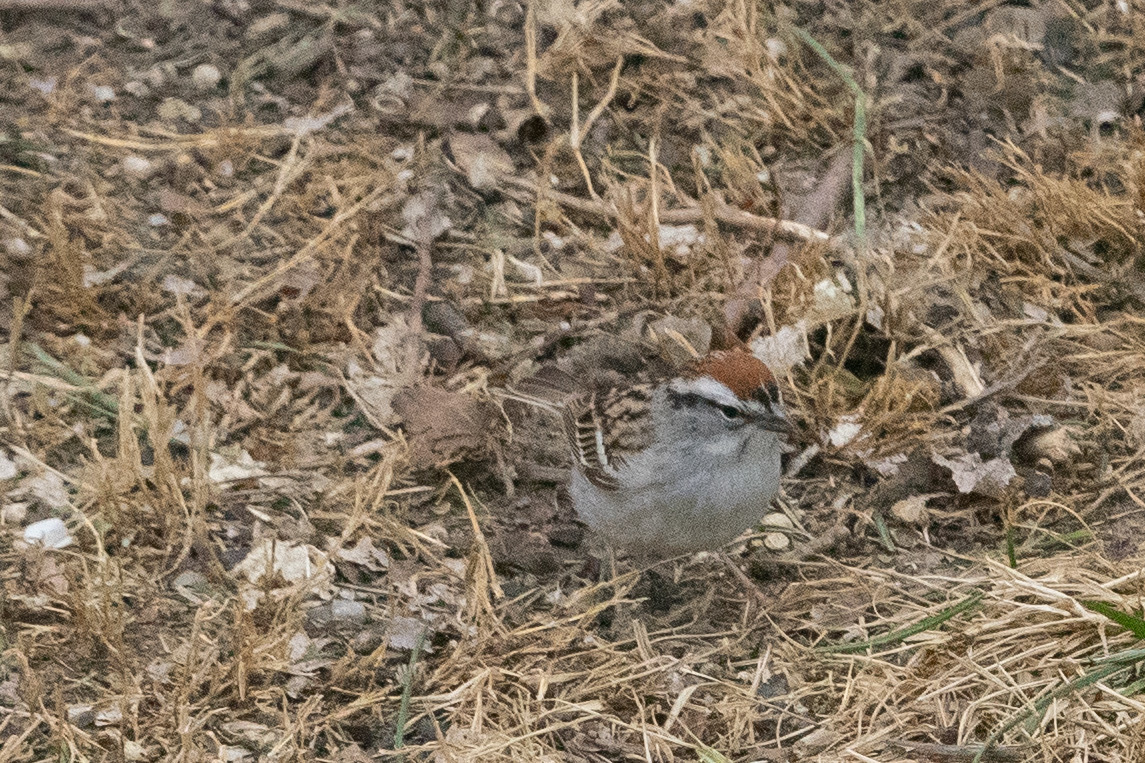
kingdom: Animalia
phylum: Chordata
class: Aves
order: Passeriformes
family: Passerellidae
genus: Spizella
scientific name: Spizella passerina
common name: Chipping sparrow
